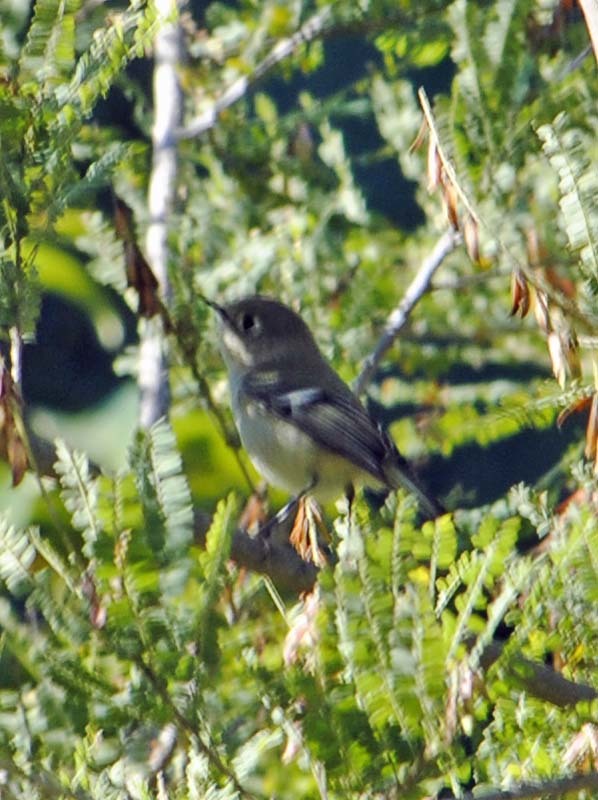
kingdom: Animalia
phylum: Chordata
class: Aves
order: Passeriformes
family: Regulidae
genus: Regulus
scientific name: Regulus calendula
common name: Ruby-crowned kinglet
